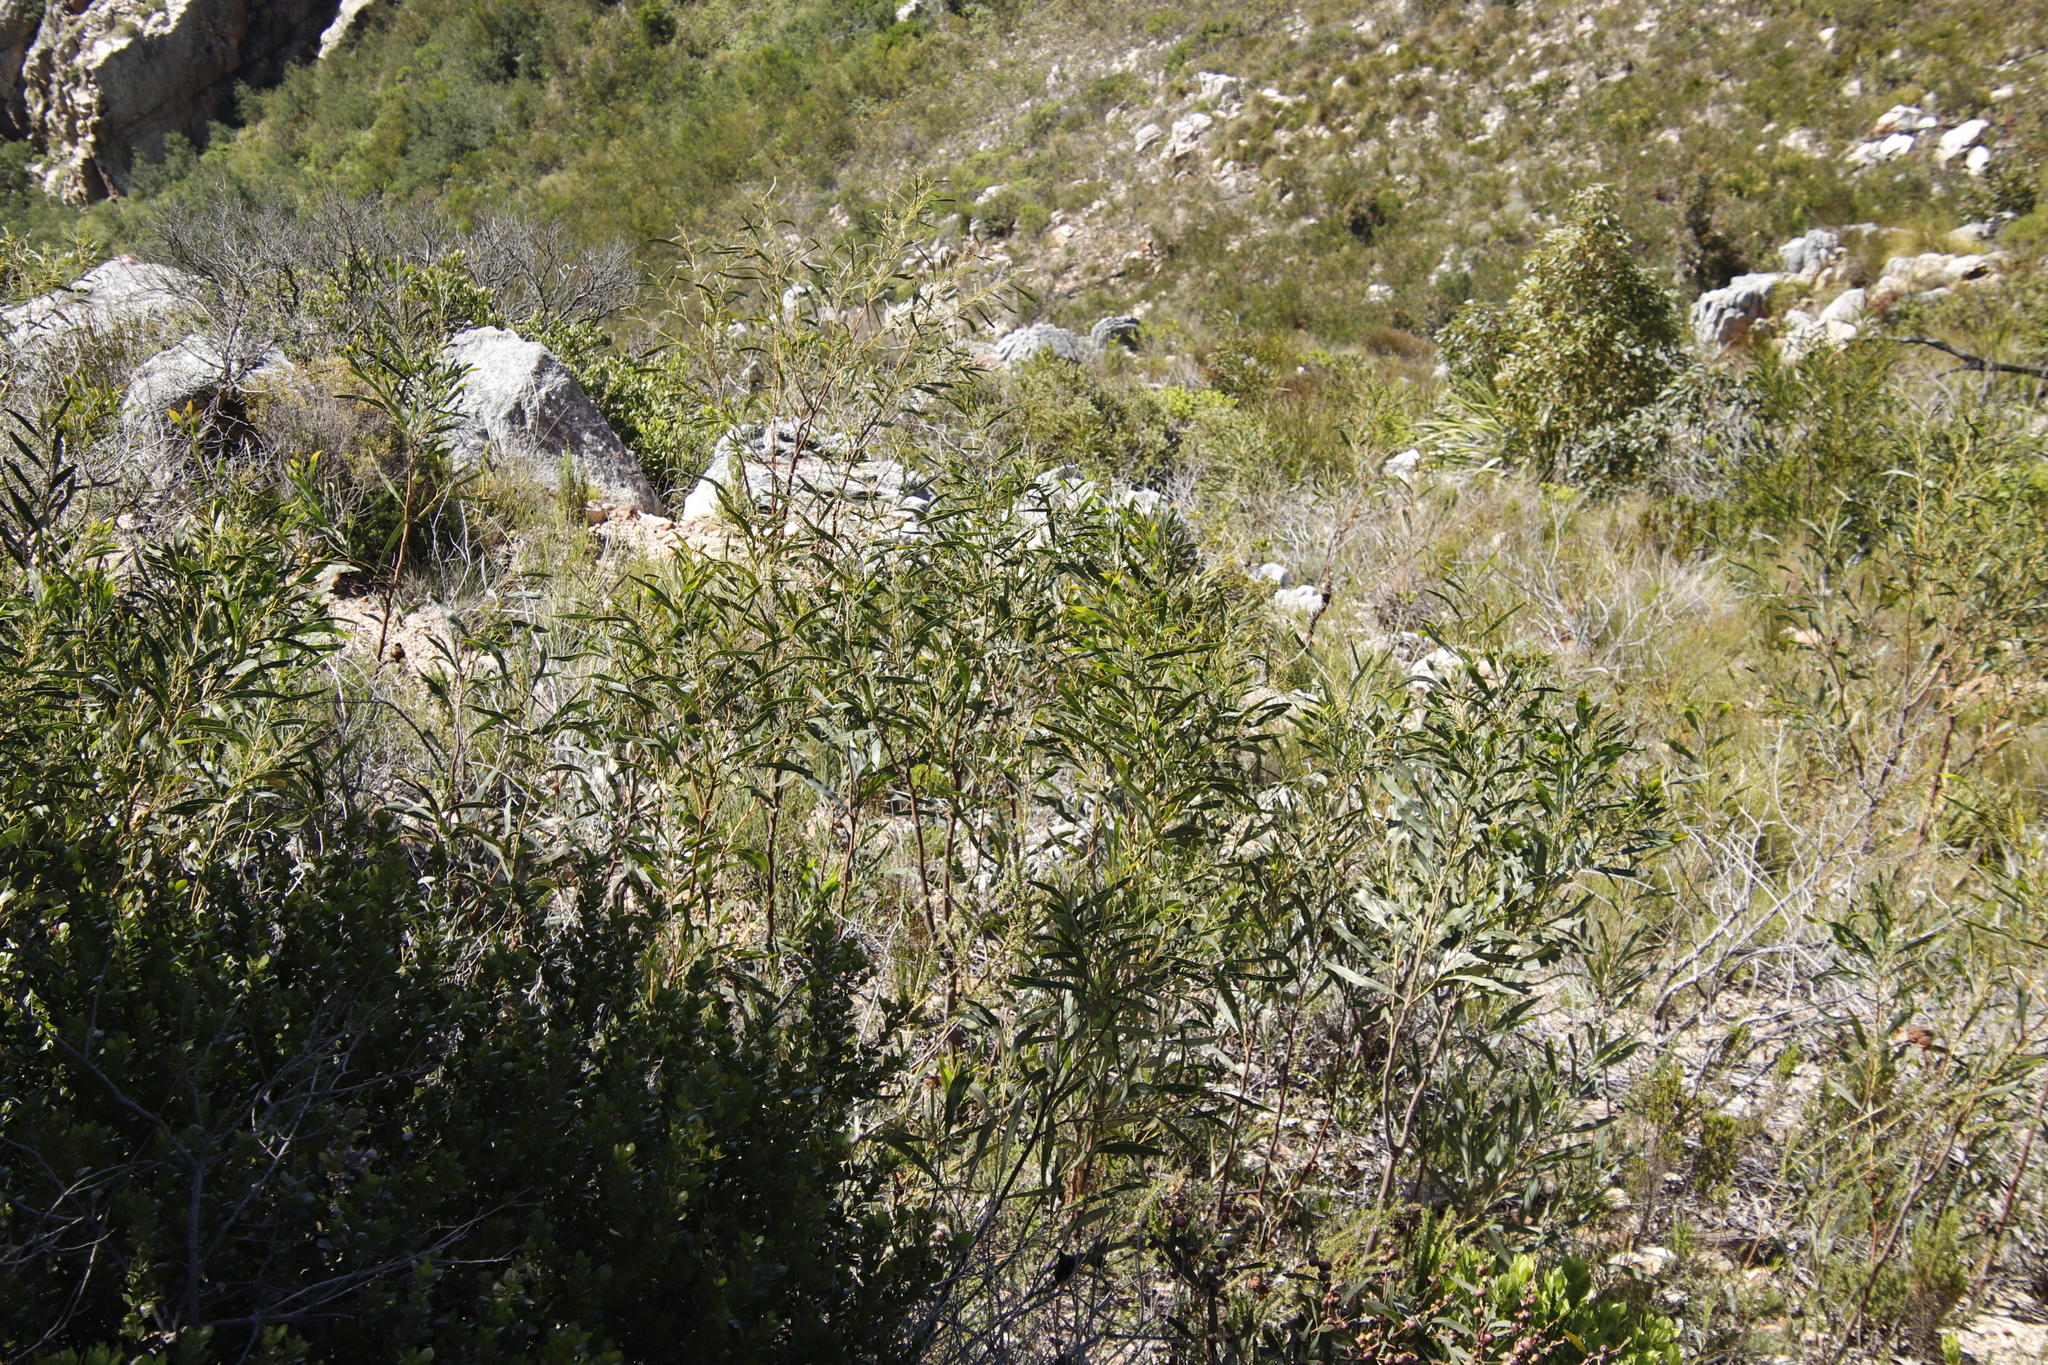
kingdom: Plantae
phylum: Tracheophyta
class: Magnoliopsida
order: Fabales
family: Fabaceae
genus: Acacia
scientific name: Acacia saligna
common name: Orange wattle
